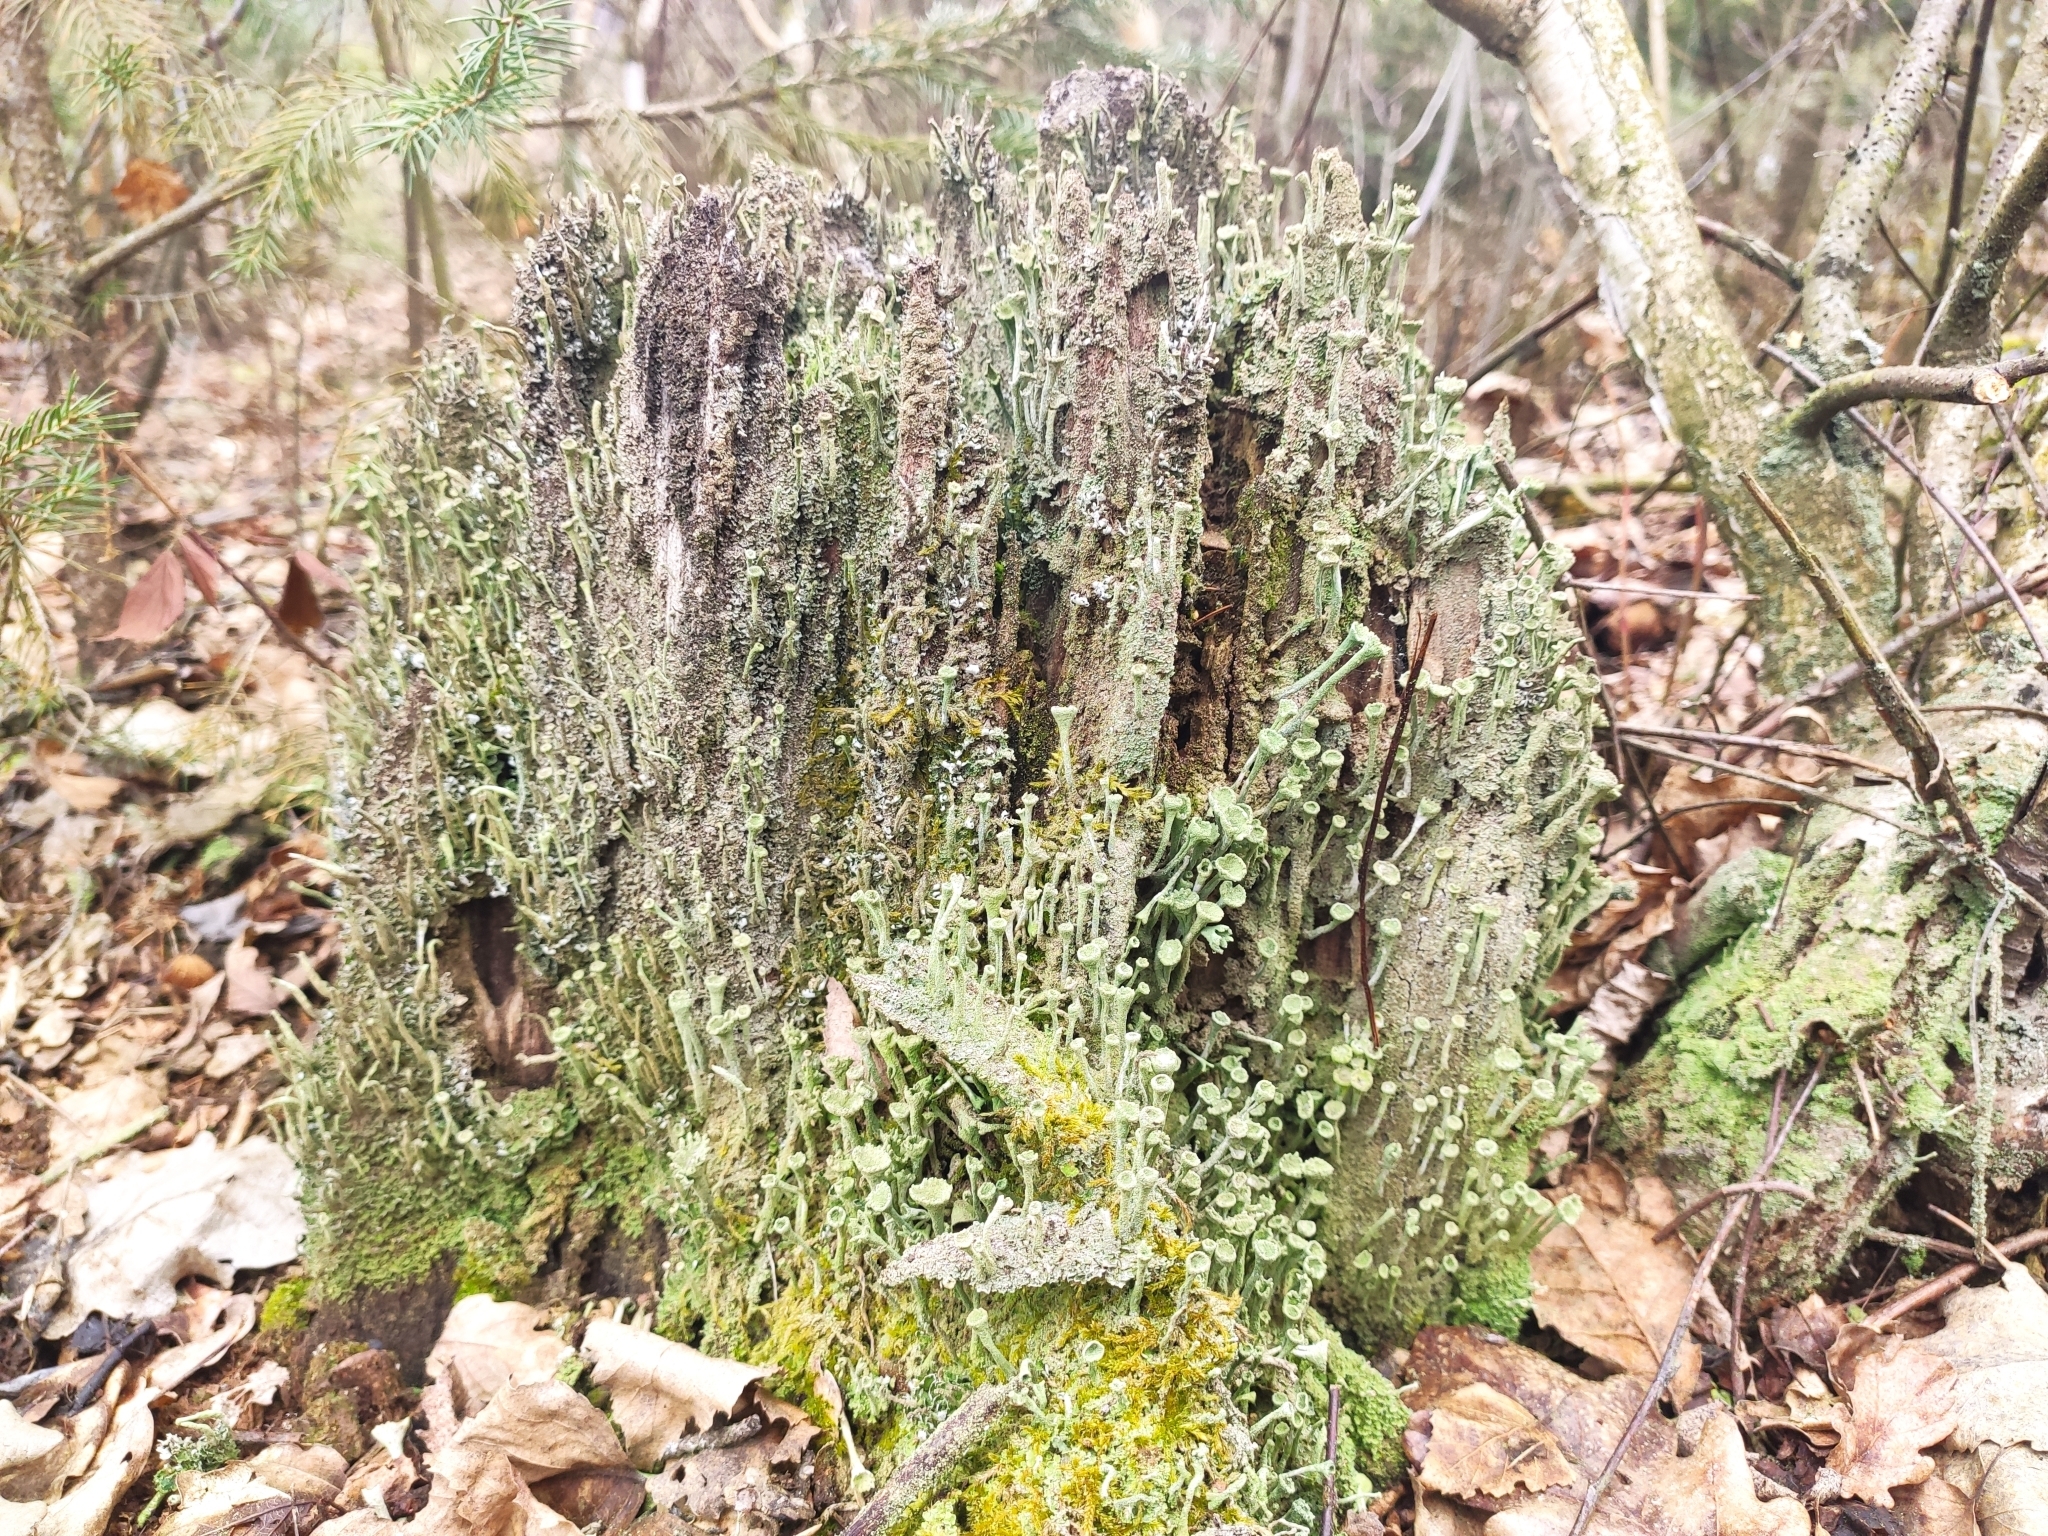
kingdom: Fungi
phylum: Ascomycota
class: Lecanoromycetes
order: Lecanorales
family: Cladoniaceae
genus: Cladonia
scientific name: Cladonia fimbriata
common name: Powdered trumpet lichen
